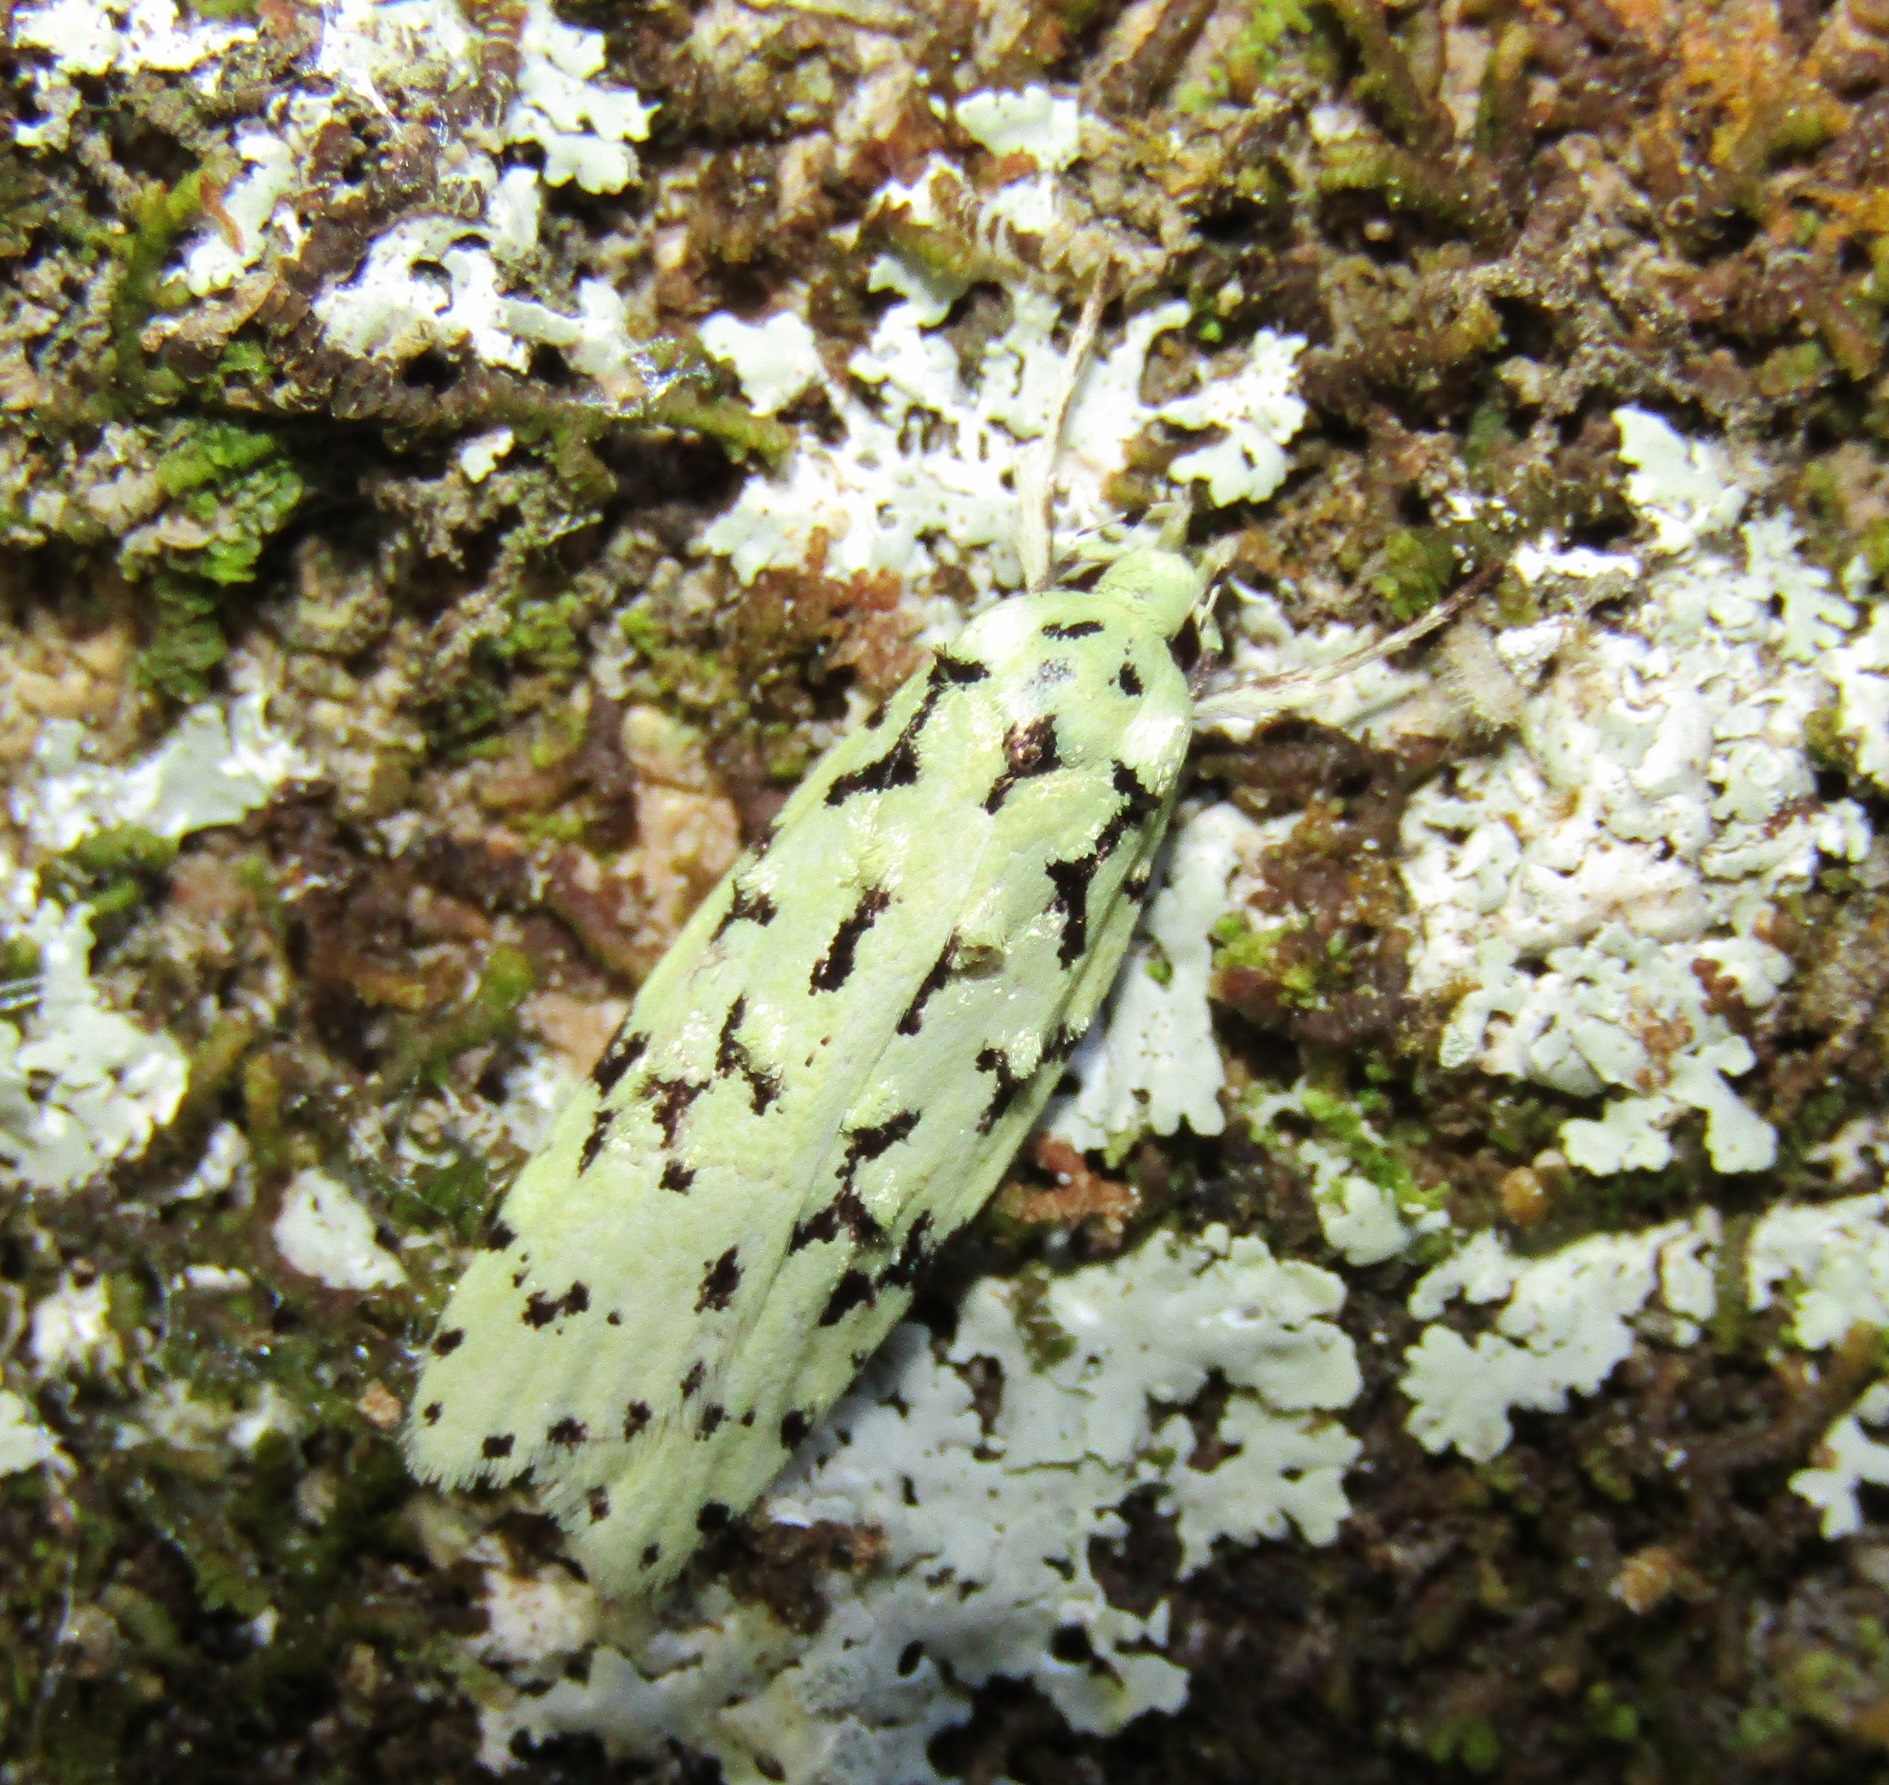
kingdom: Animalia
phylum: Arthropoda
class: Insecta
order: Lepidoptera
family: Oecophoridae
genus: Izatha
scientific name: Izatha huttoni
